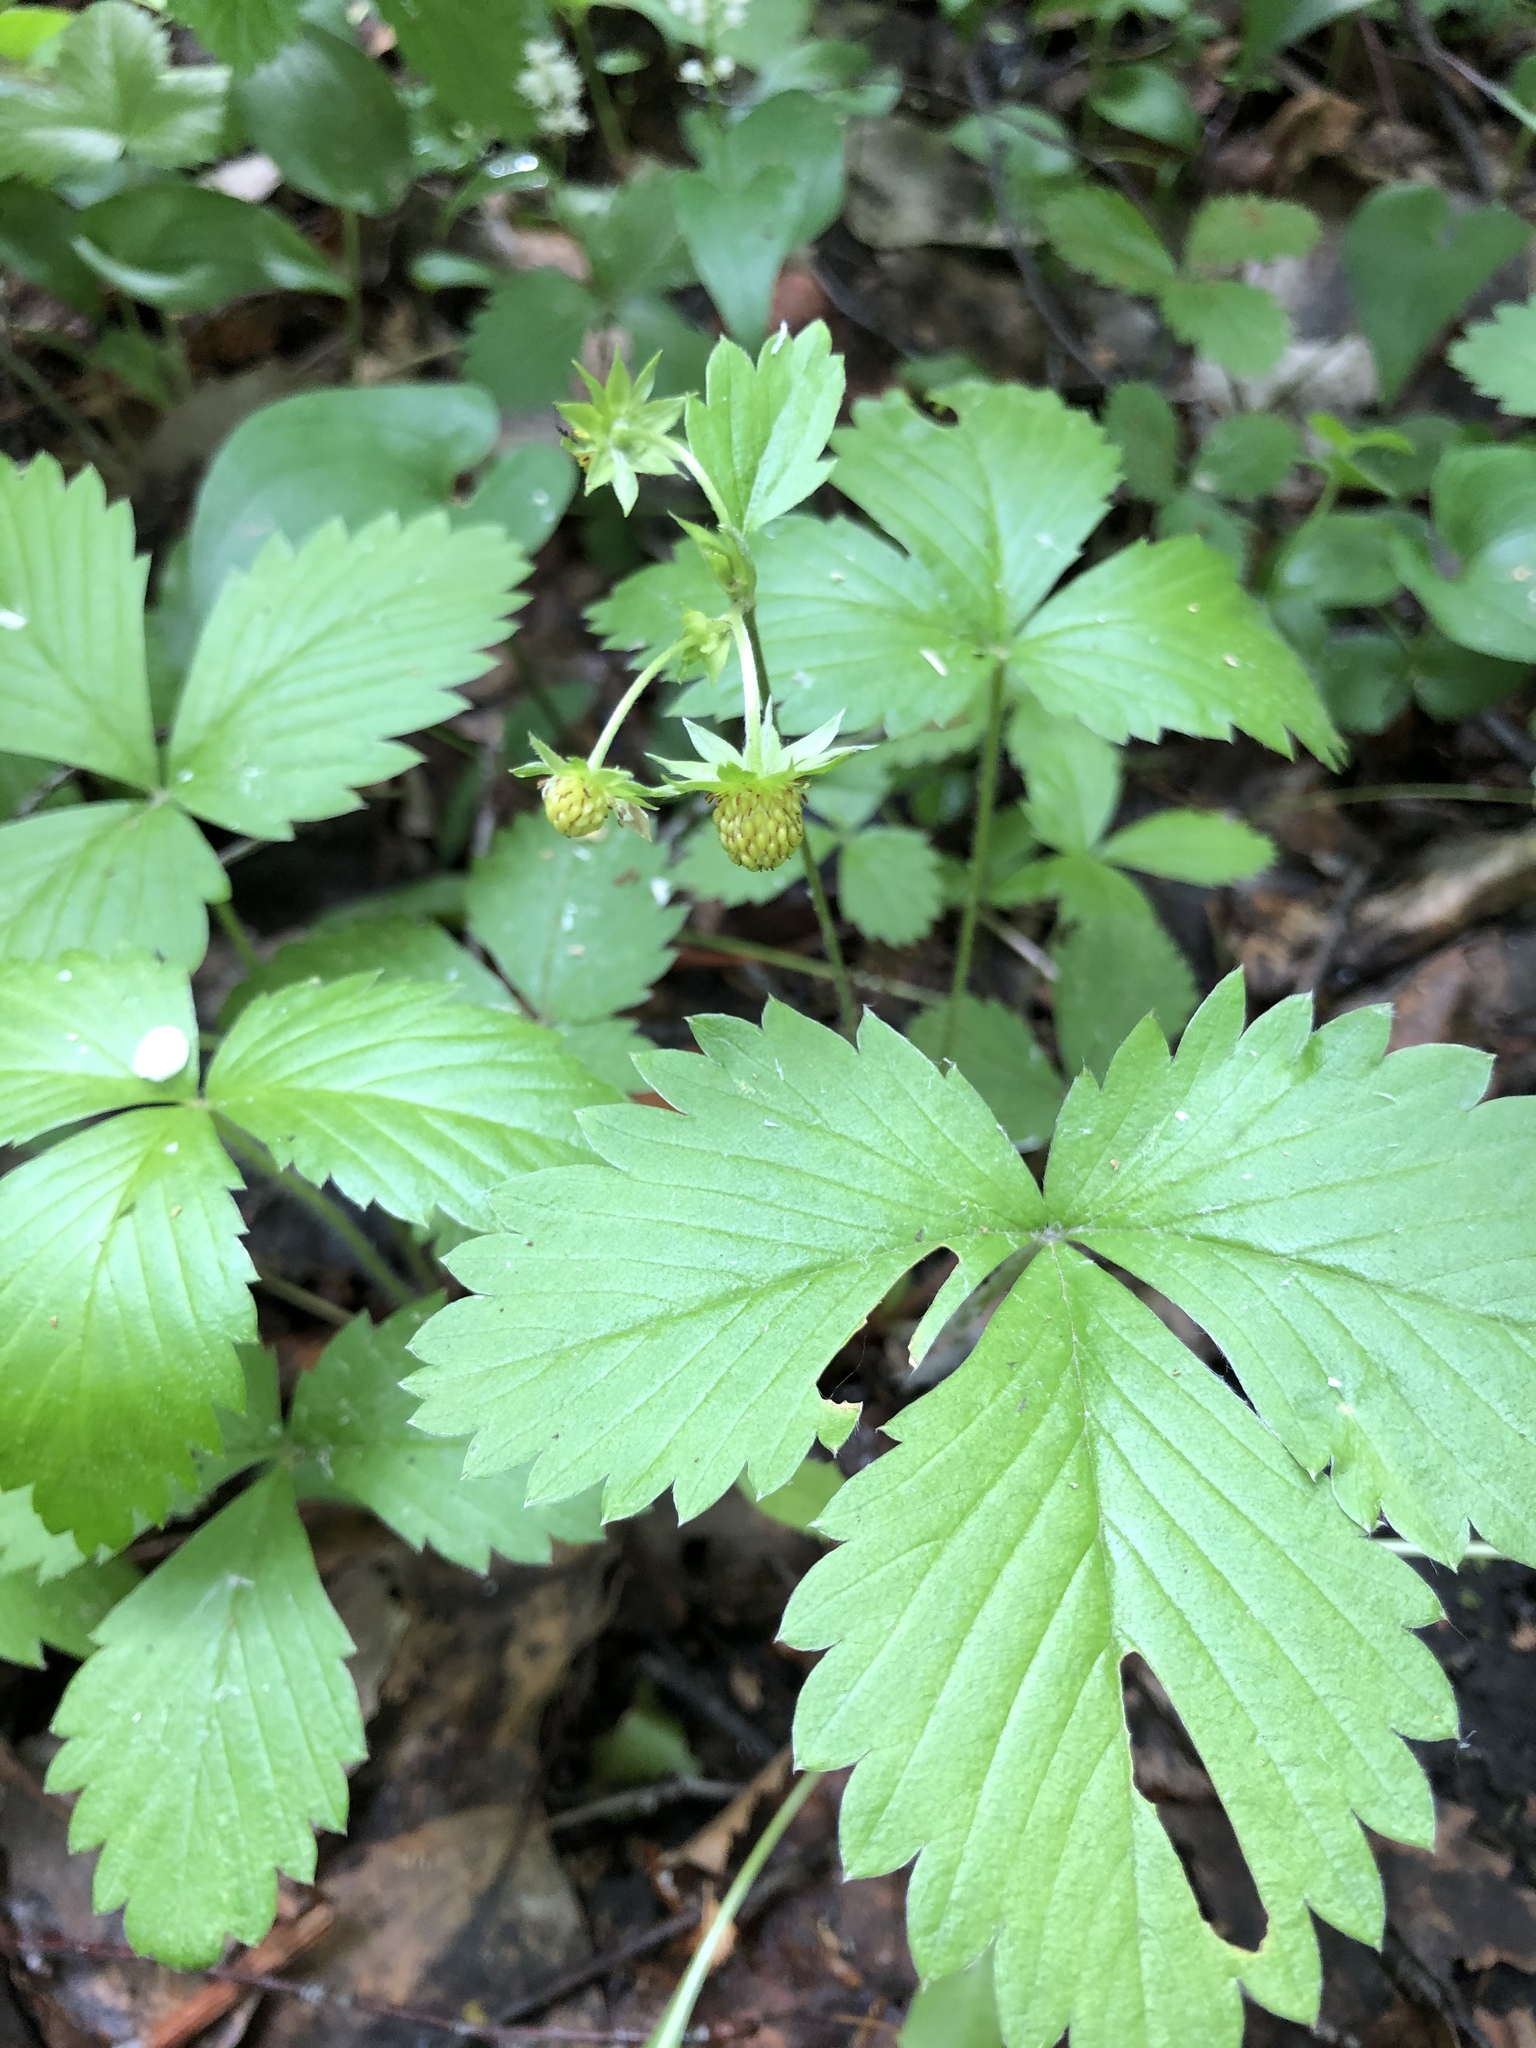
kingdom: Plantae
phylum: Tracheophyta
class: Magnoliopsida
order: Rosales
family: Rosaceae
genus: Fragaria
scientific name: Fragaria vesca
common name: Wild strawberry
